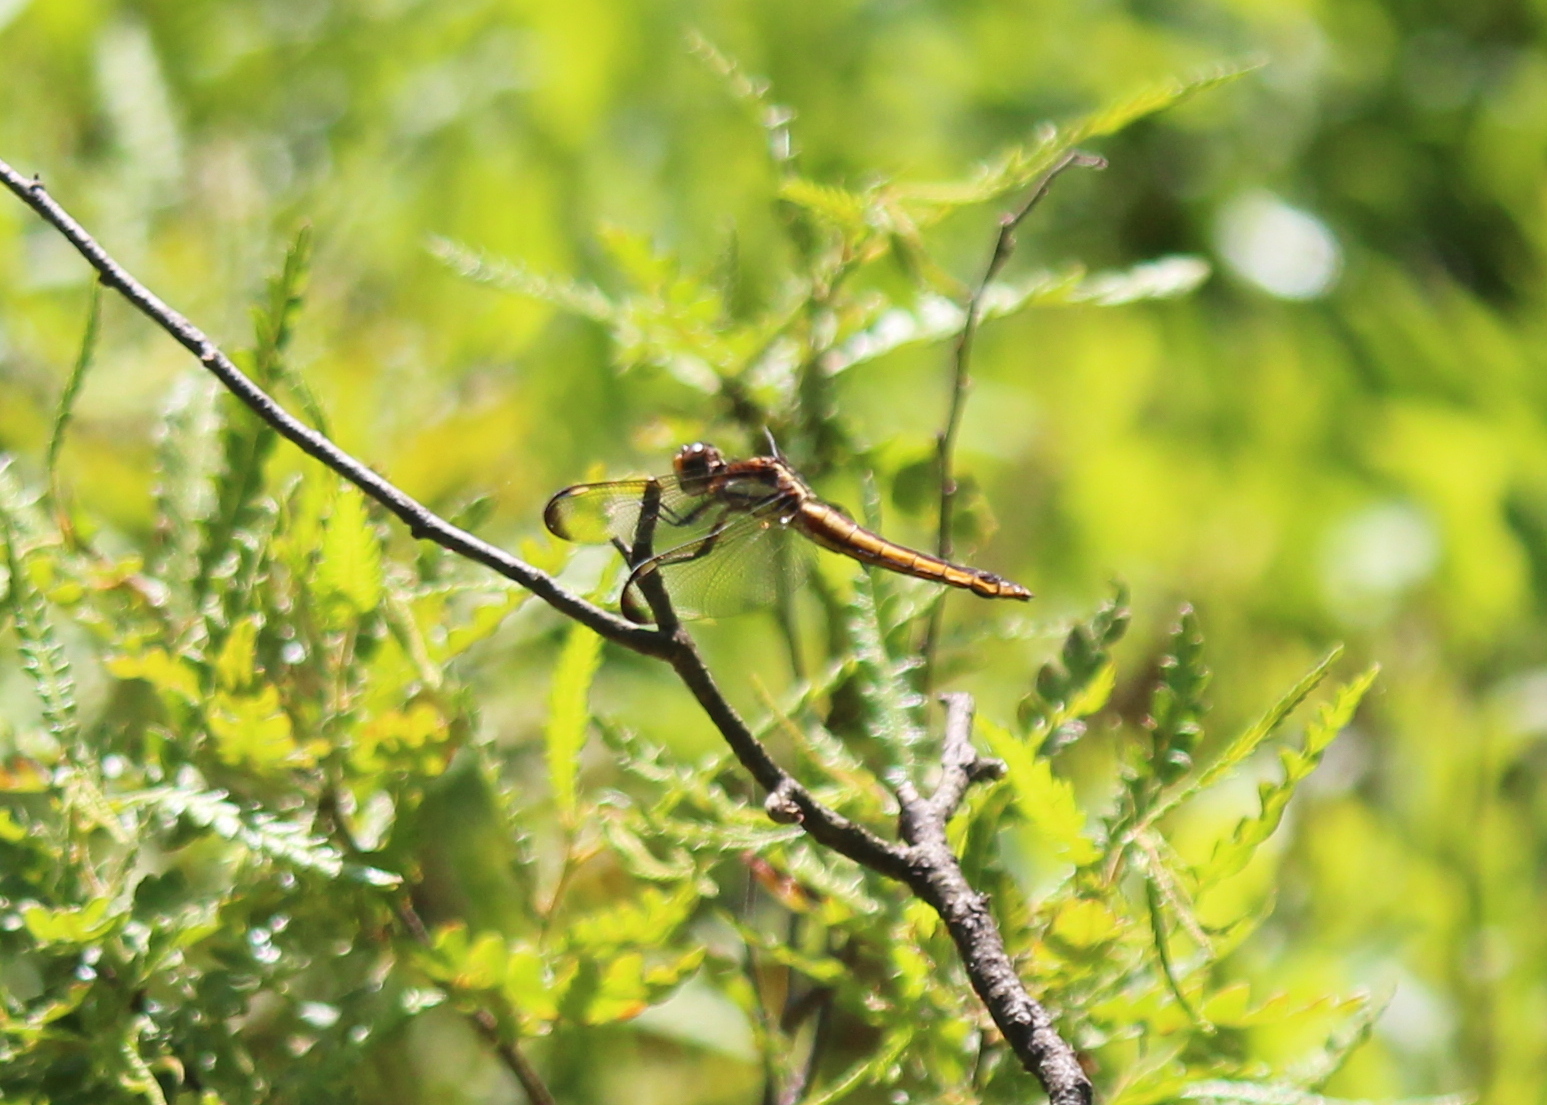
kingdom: Animalia
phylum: Arthropoda
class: Insecta
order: Odonata
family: Libellulidae
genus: Libellula
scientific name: Libellula cyanea
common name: Spangled skimmer
